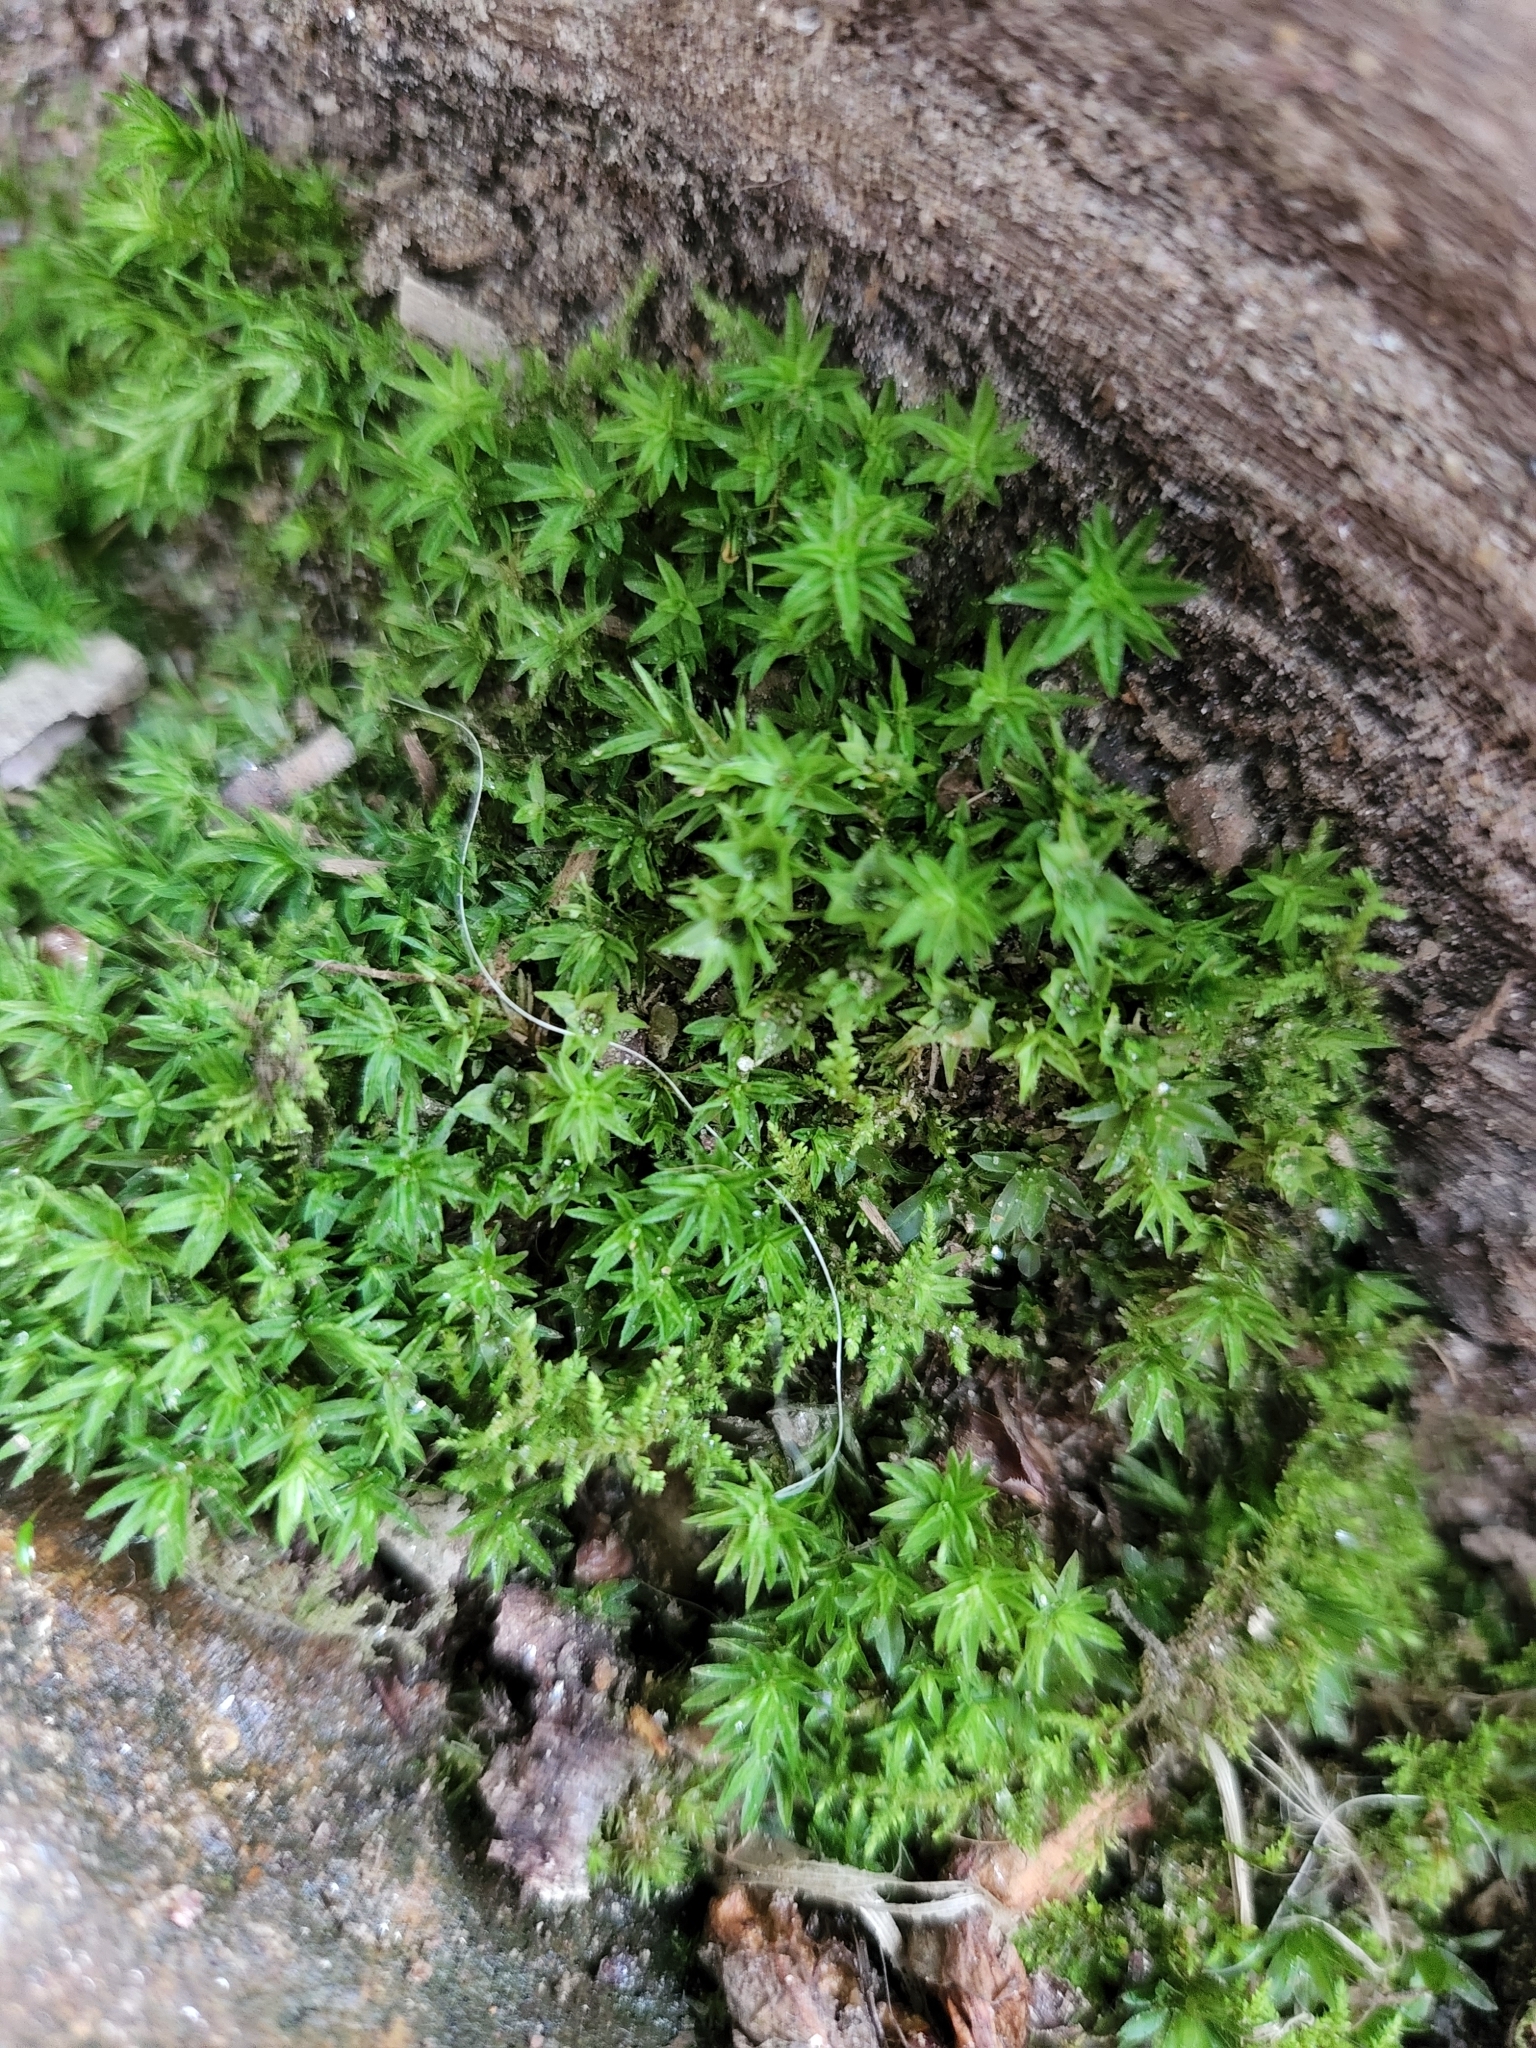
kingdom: Plantae
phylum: Bryophyta
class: Polytrichopsida
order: Polytrichales
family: Polytrichaceae
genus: Atrichum
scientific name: Atrichum undulatum
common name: Common smoothcap
